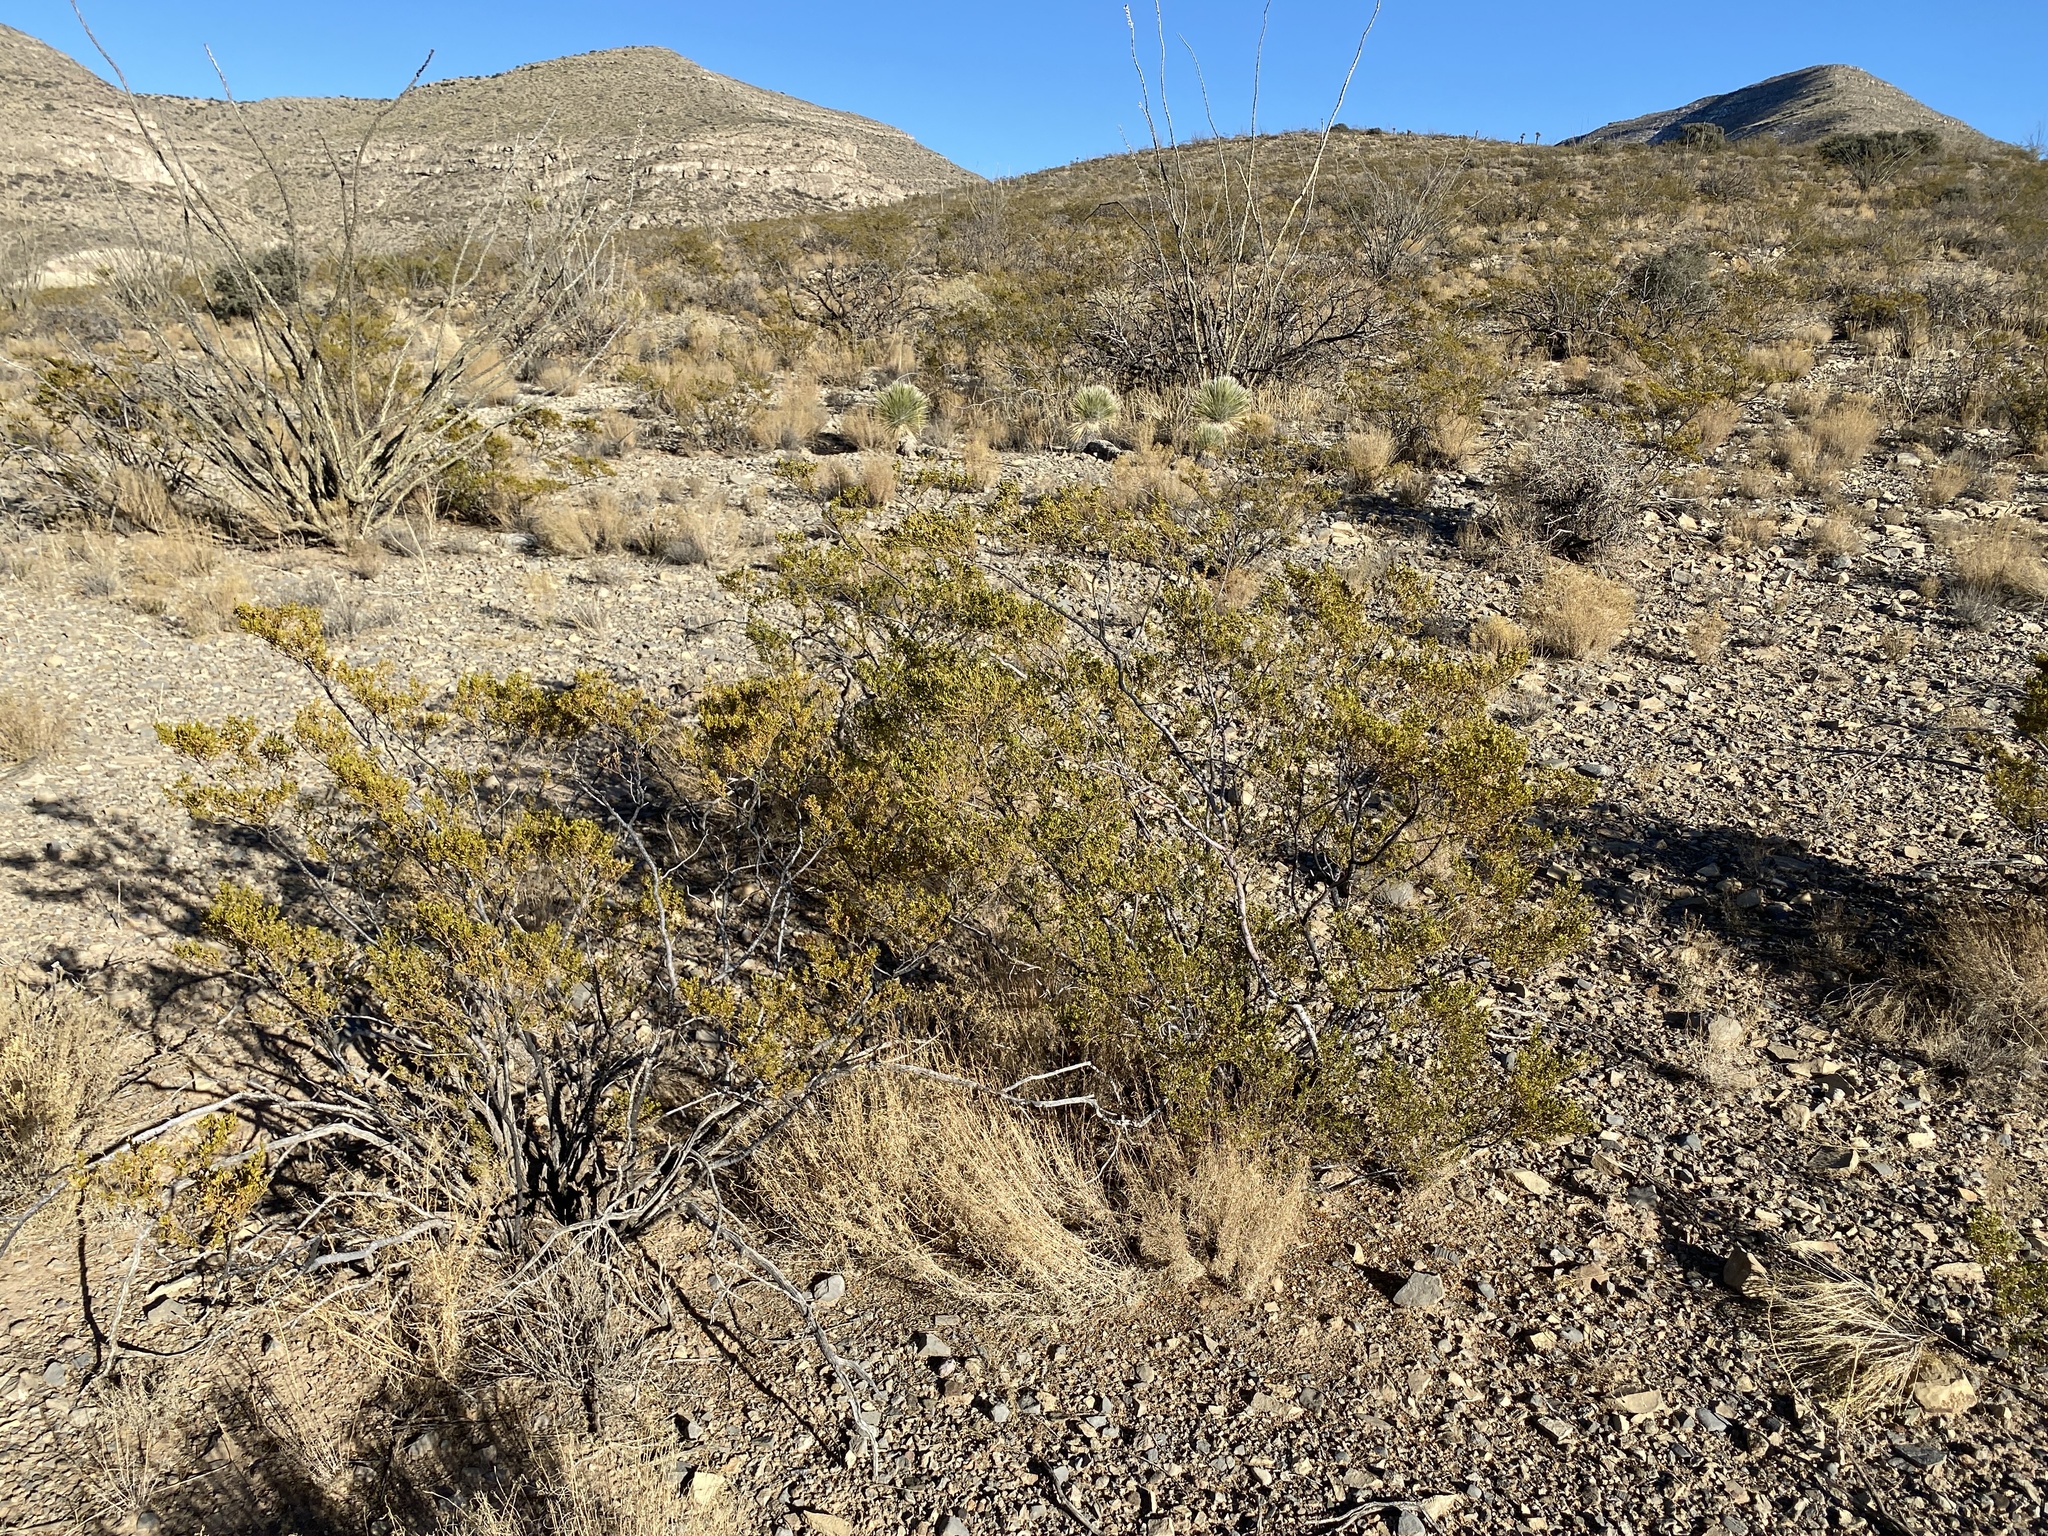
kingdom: Plantae
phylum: Tracheophyta
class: Magnoliopsida
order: Zygophyllales
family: Zygophyllaceae
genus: Larrea
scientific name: Larrea tridentata
